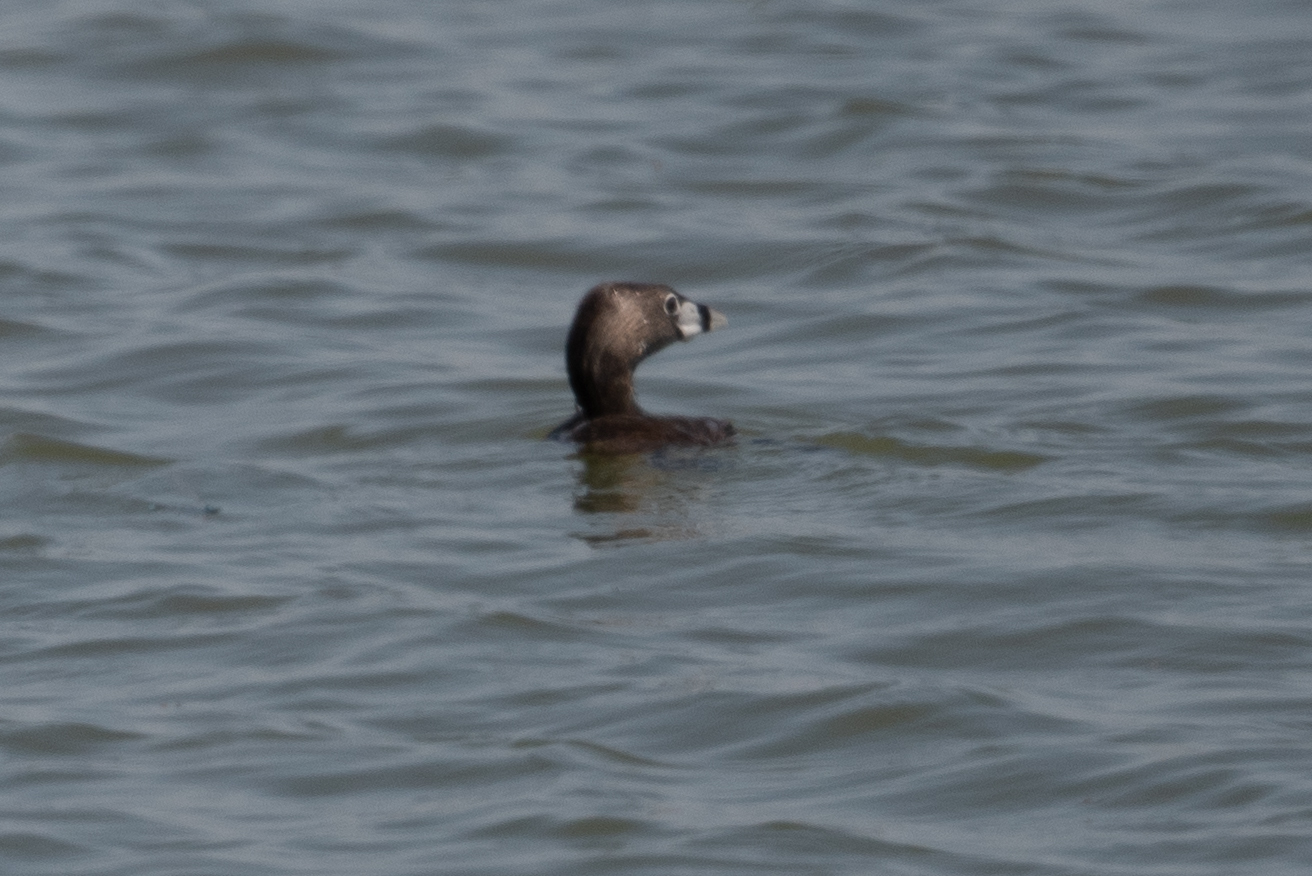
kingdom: Animalia
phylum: Chordata
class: Aves
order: Podicipediformes
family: Podicipedidae
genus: Podilymbus
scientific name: Podilymbus podiceps
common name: Pied-billed grebe
